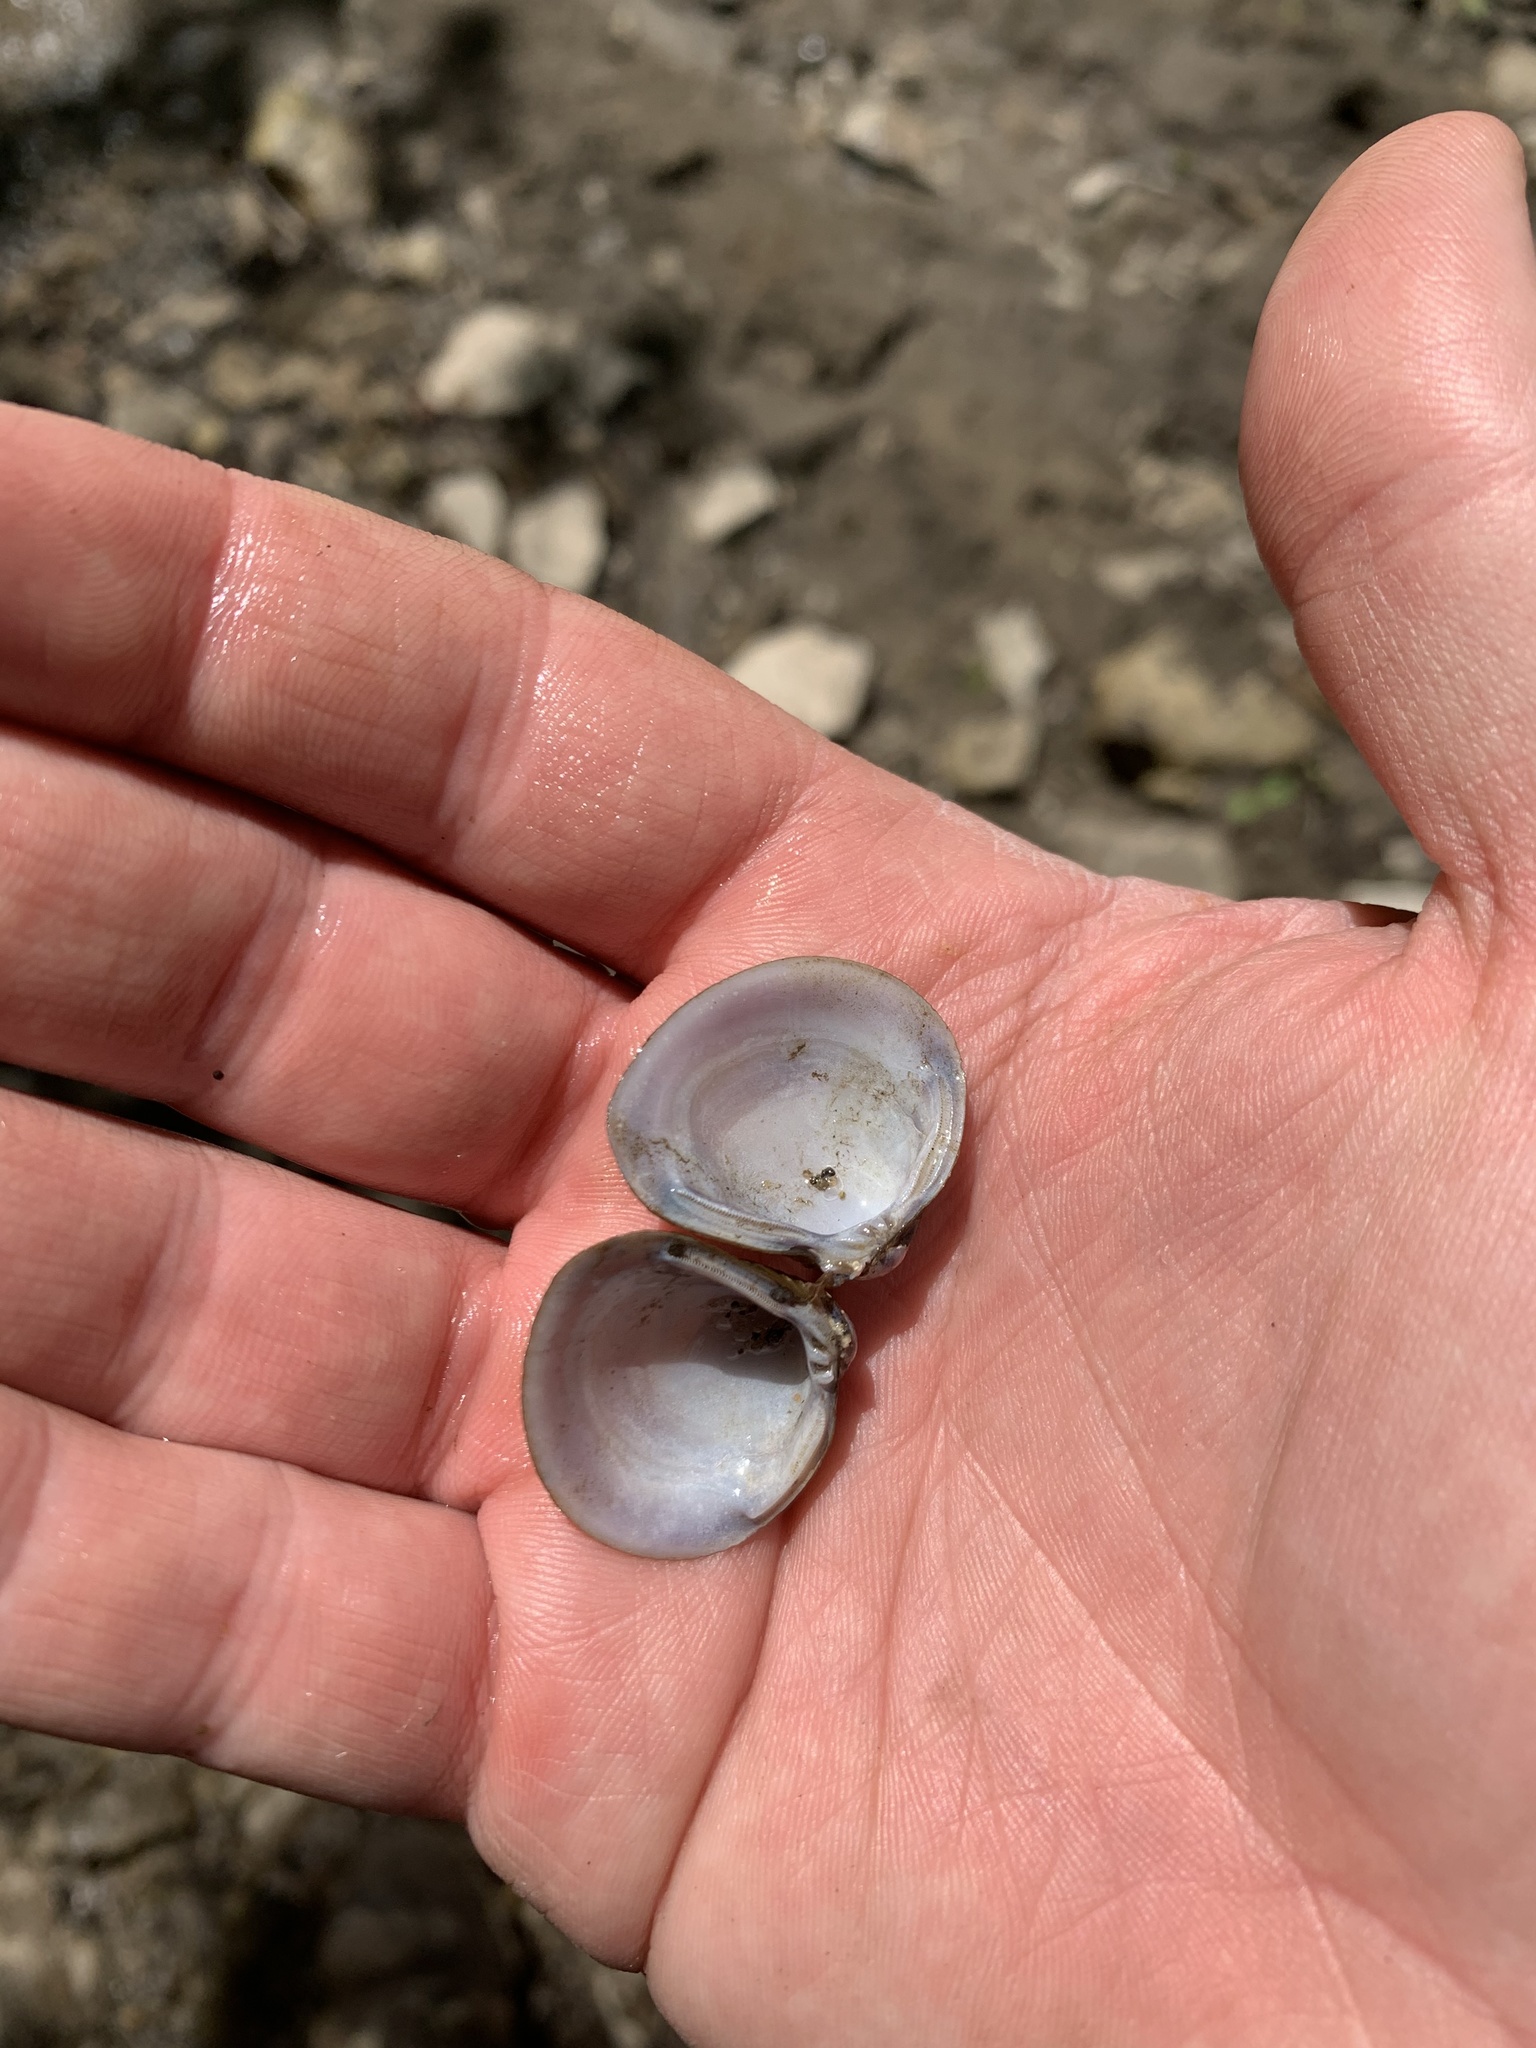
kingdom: Animalia
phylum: Mollusca
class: Bivalvia
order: Venerida
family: Cyrenidae
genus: Corbicula
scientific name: Corbicula fluminea
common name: Asian clam
